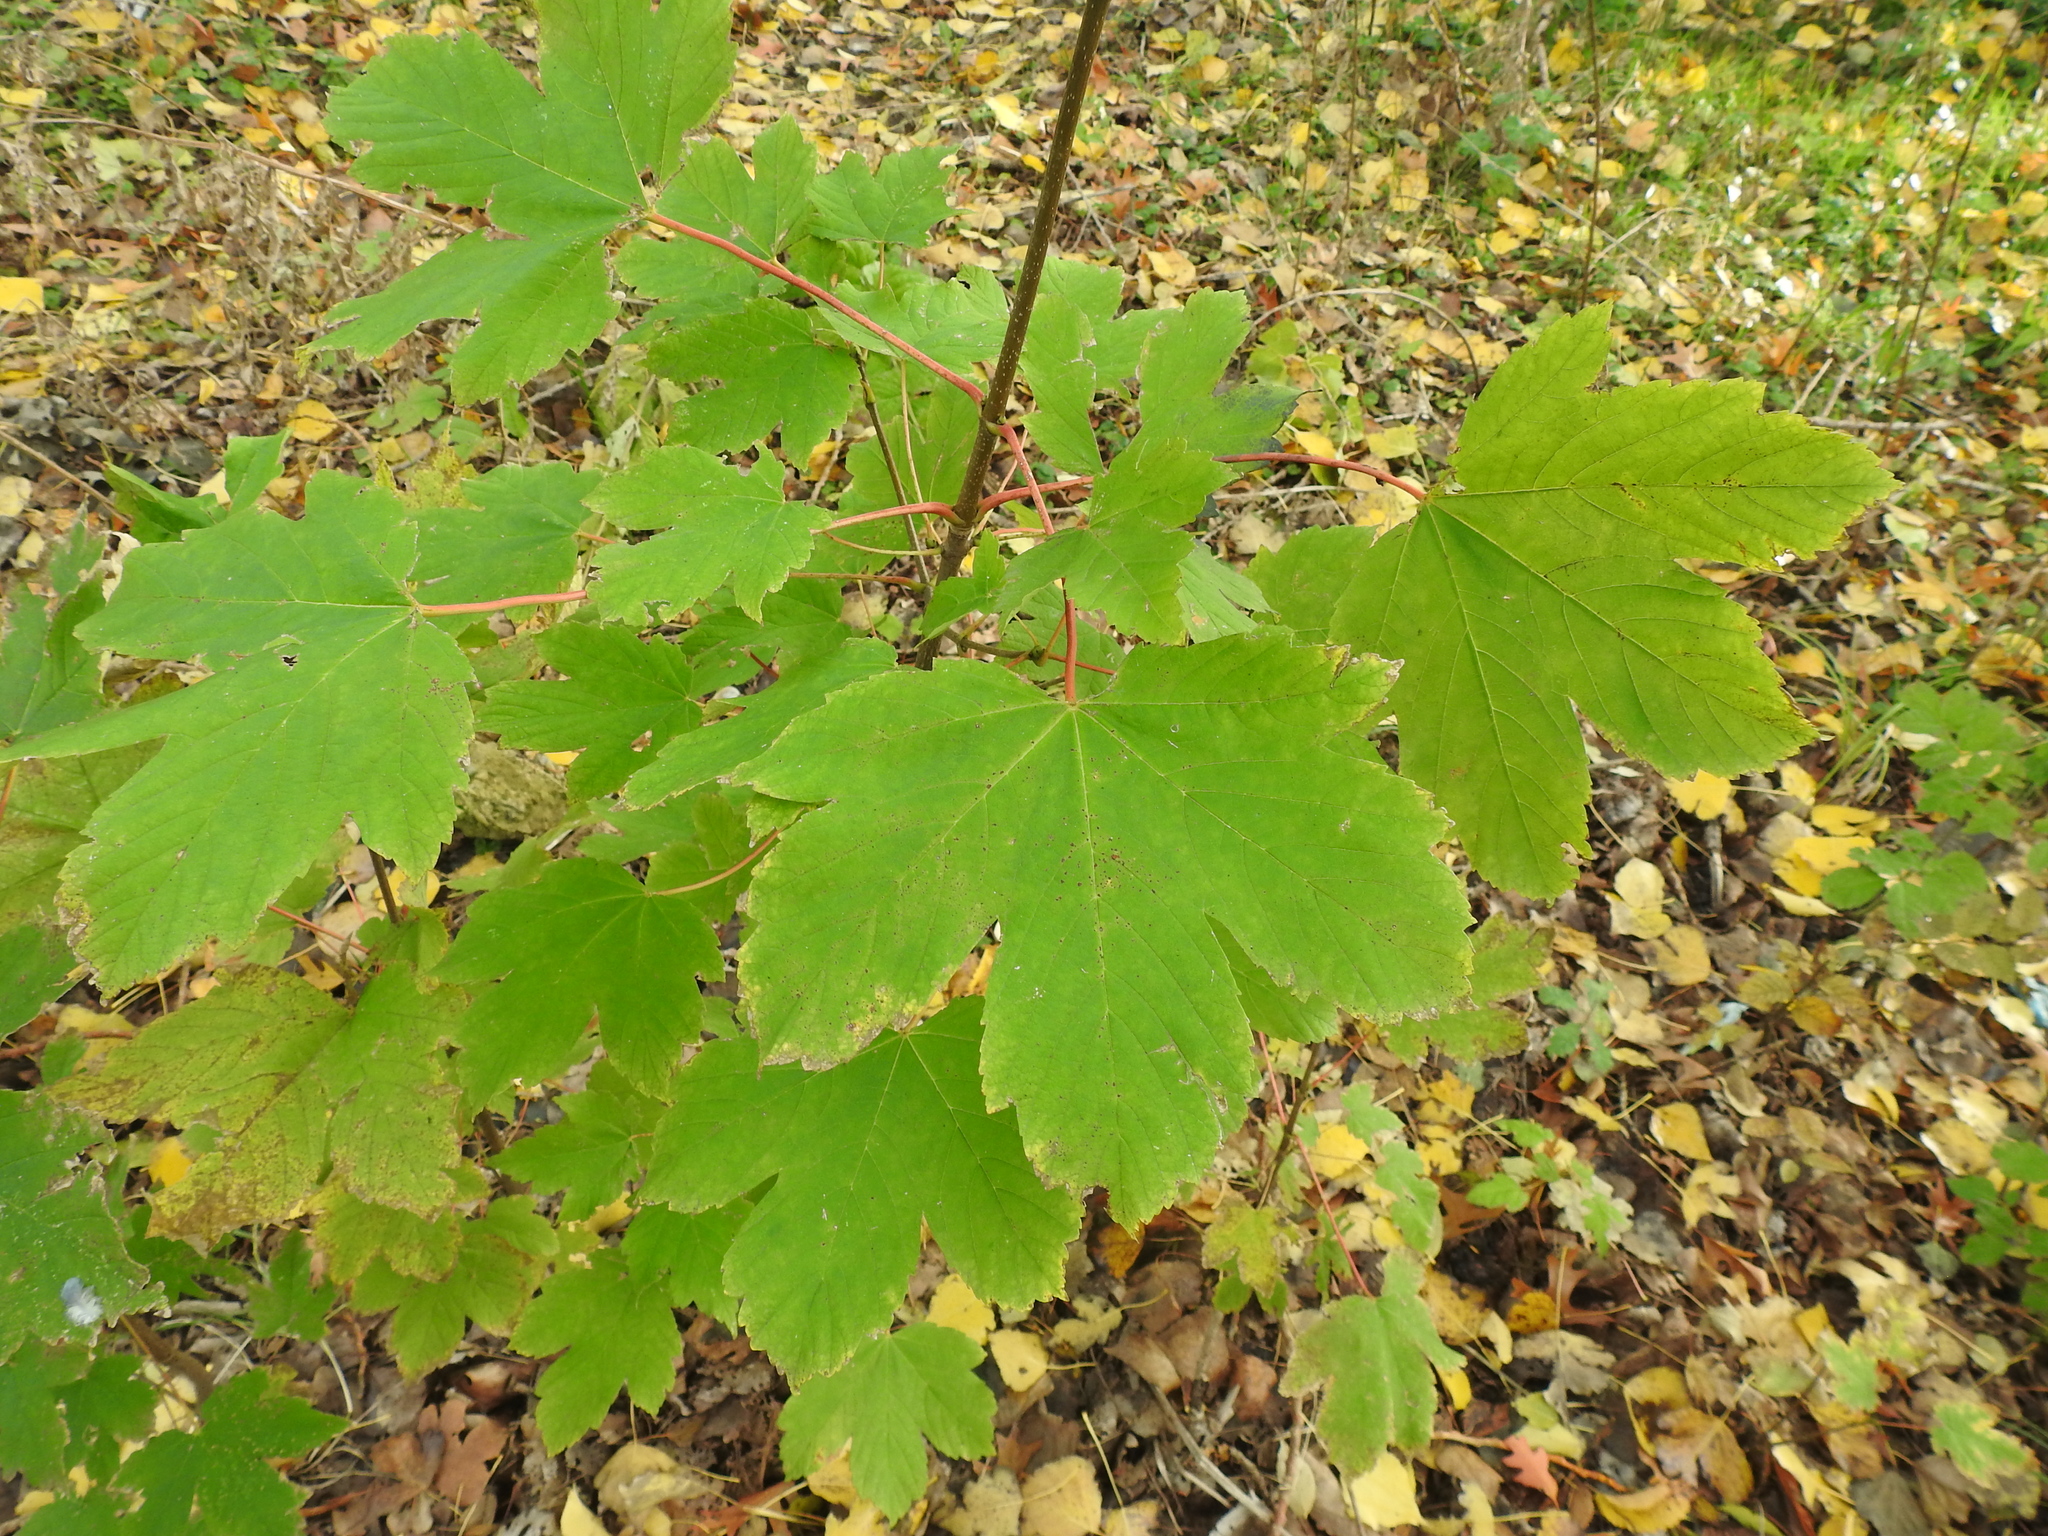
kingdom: Plantae
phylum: Tracheophyta
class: Magnoliopsida
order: Sapindales
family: Sapindaceae
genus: Acer
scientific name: Acer pseudoplatanus
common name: Sycamore
